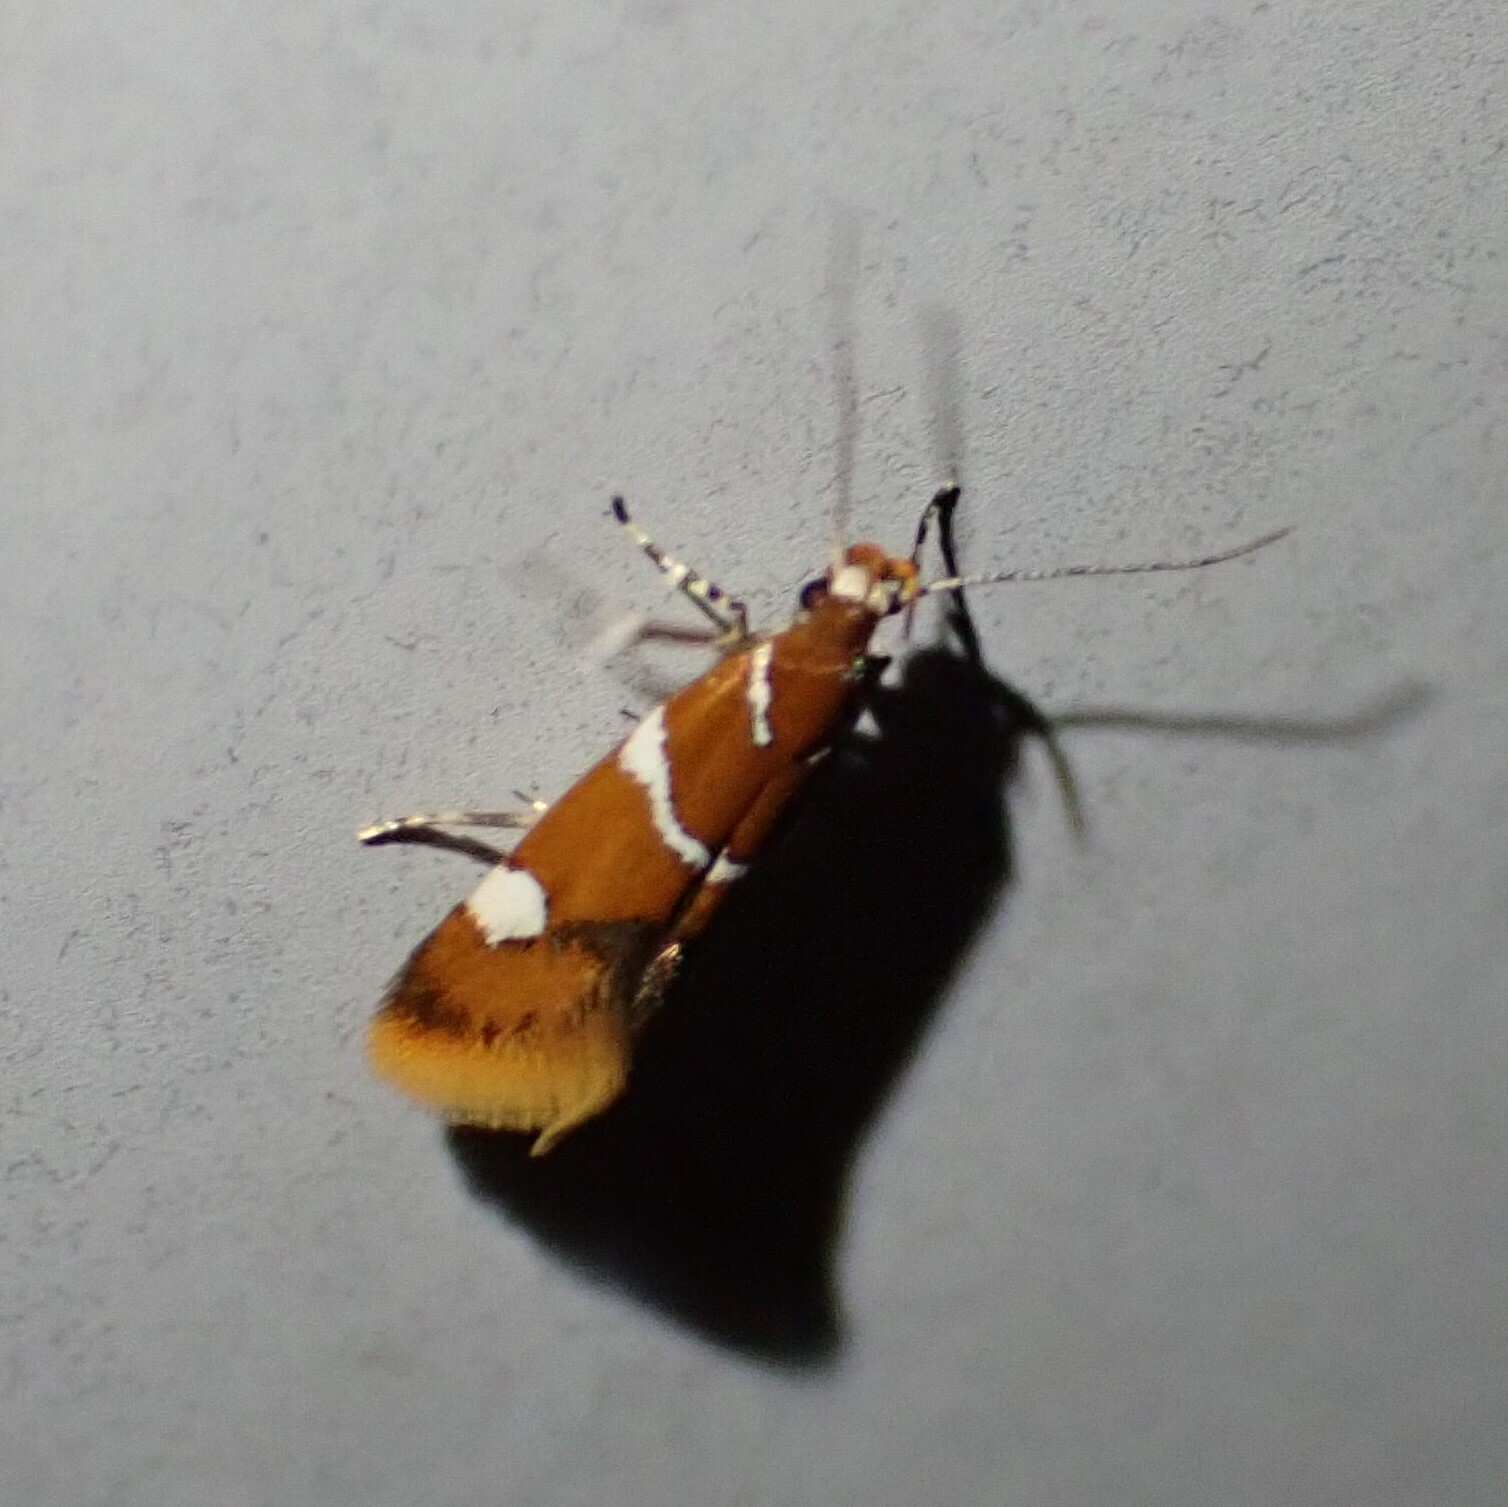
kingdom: Animalia
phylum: Arthropoda
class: Insecta
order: Lepidoptera
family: Oecophoridae
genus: Promalactis
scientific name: Promalactis suzukiella
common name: Moth
